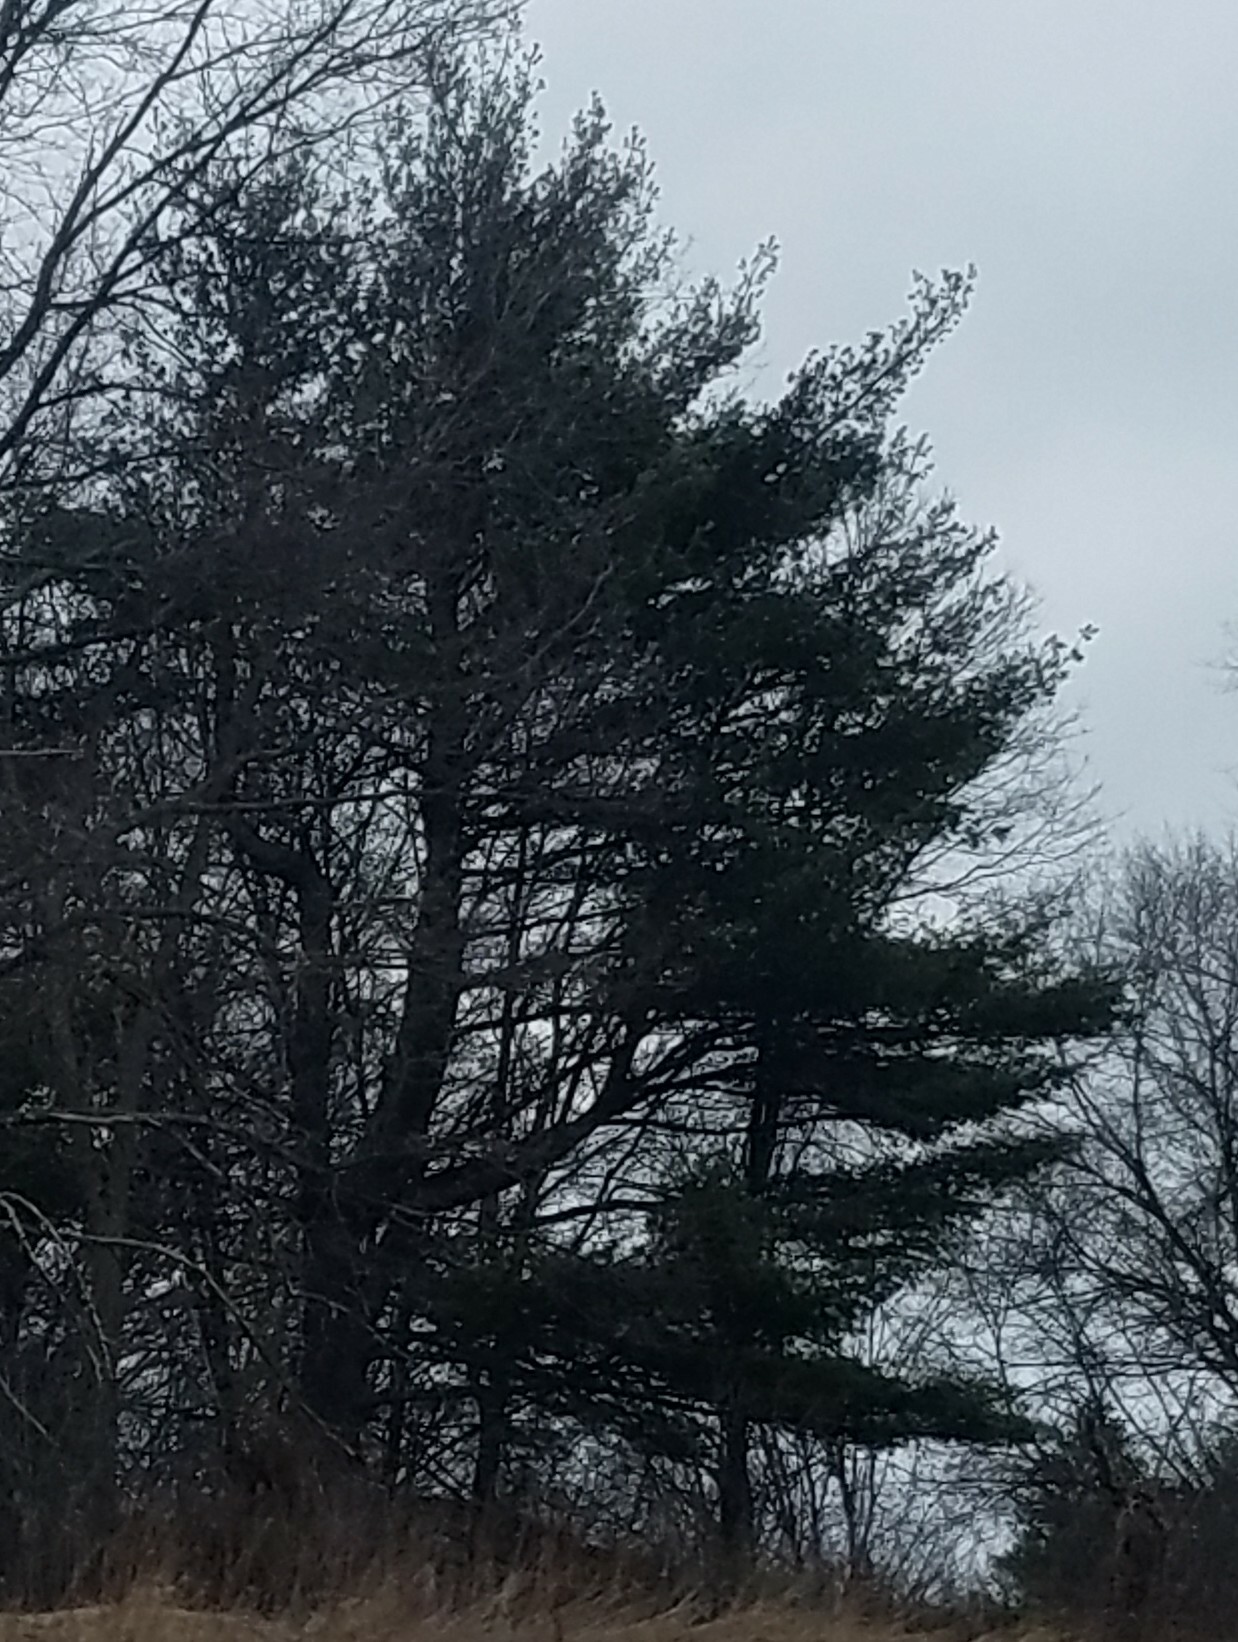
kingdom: Plantae
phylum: Tracheophyta
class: Pinopsida
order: Pinales
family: Pinaceae
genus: Pinus
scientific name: Pinus strobus
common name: Weymouth pine
